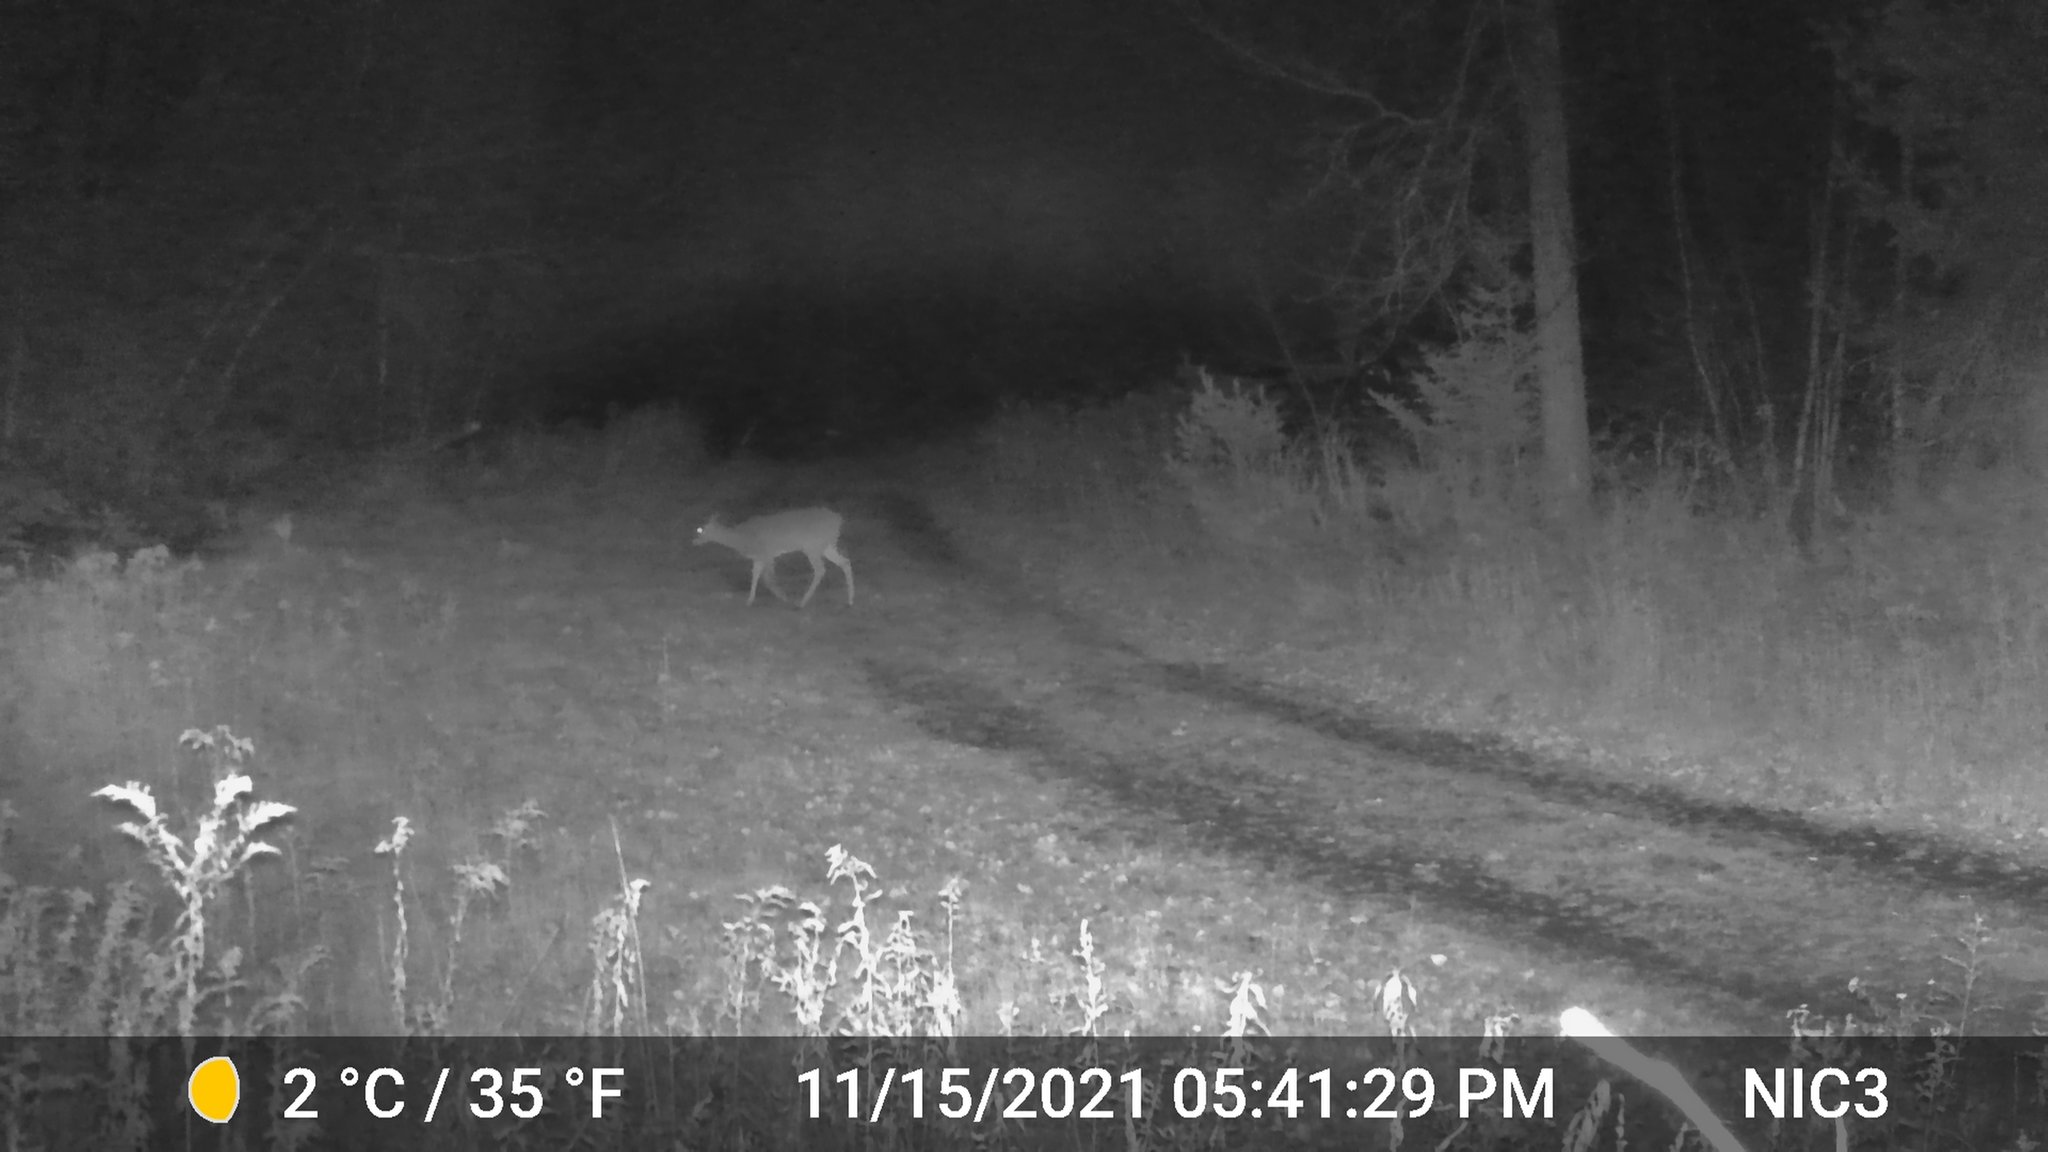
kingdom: Animalia
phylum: Chordata
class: Mammalia
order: Artiodactyla
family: Cervidae
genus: Odocoileus
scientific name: Odocoileus virginianus
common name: White-tailed deer
